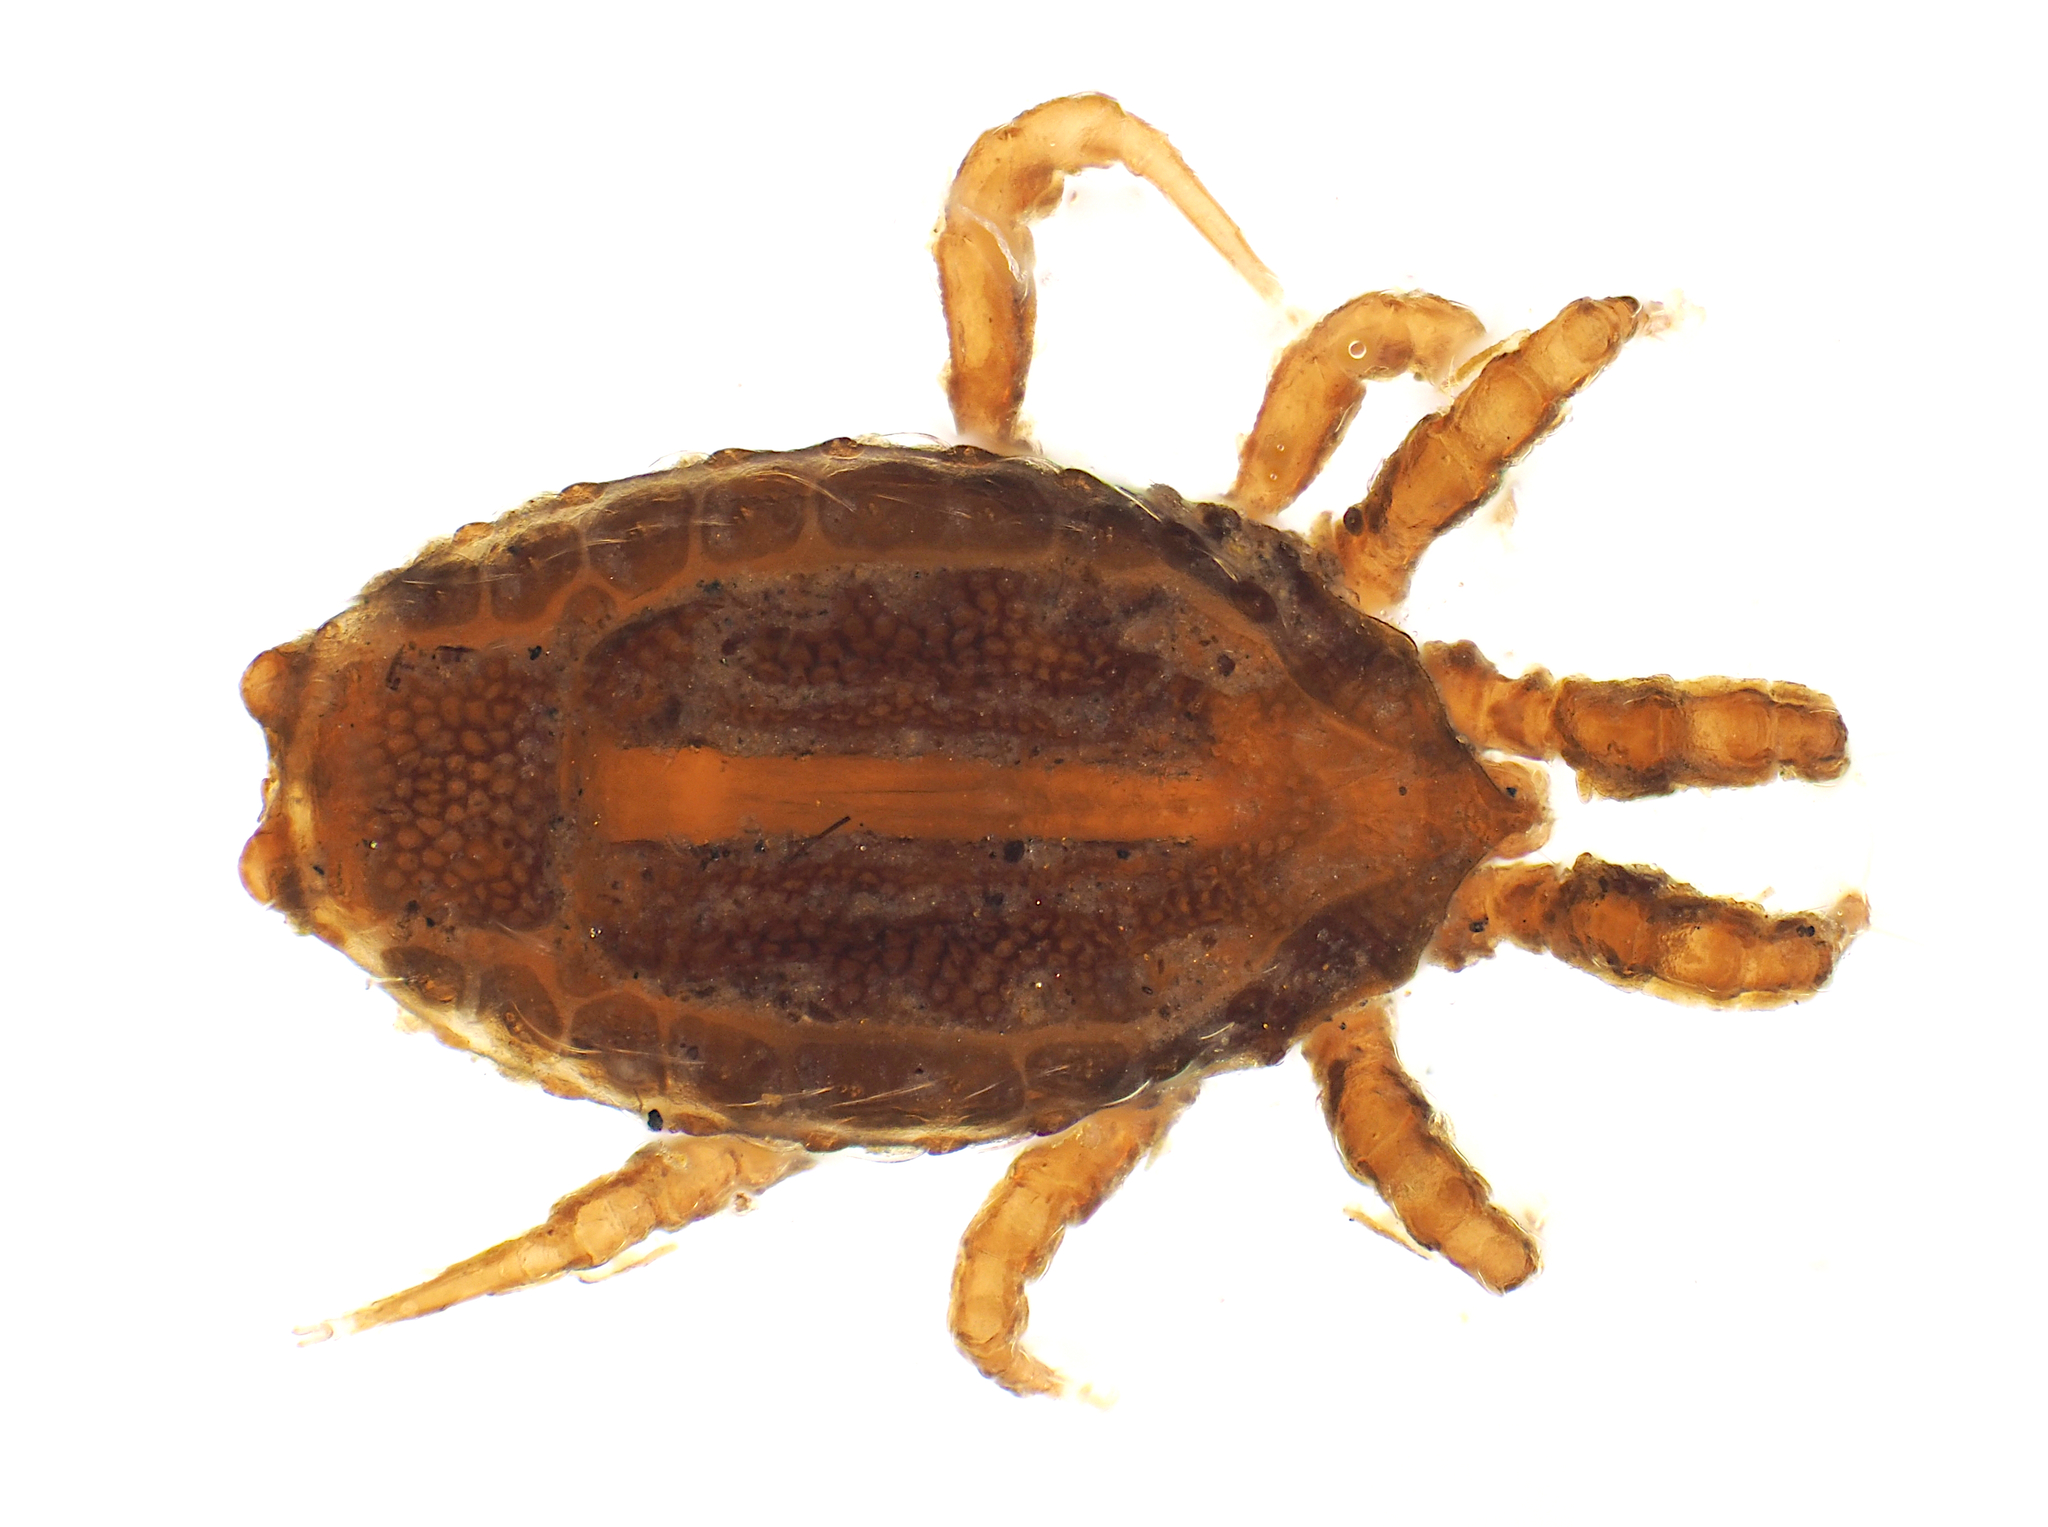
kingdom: Animalia
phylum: Arthropoda
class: Arachnida
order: Mesostigmata
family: Trachytidae
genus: Acroseius
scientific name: Acroseius
